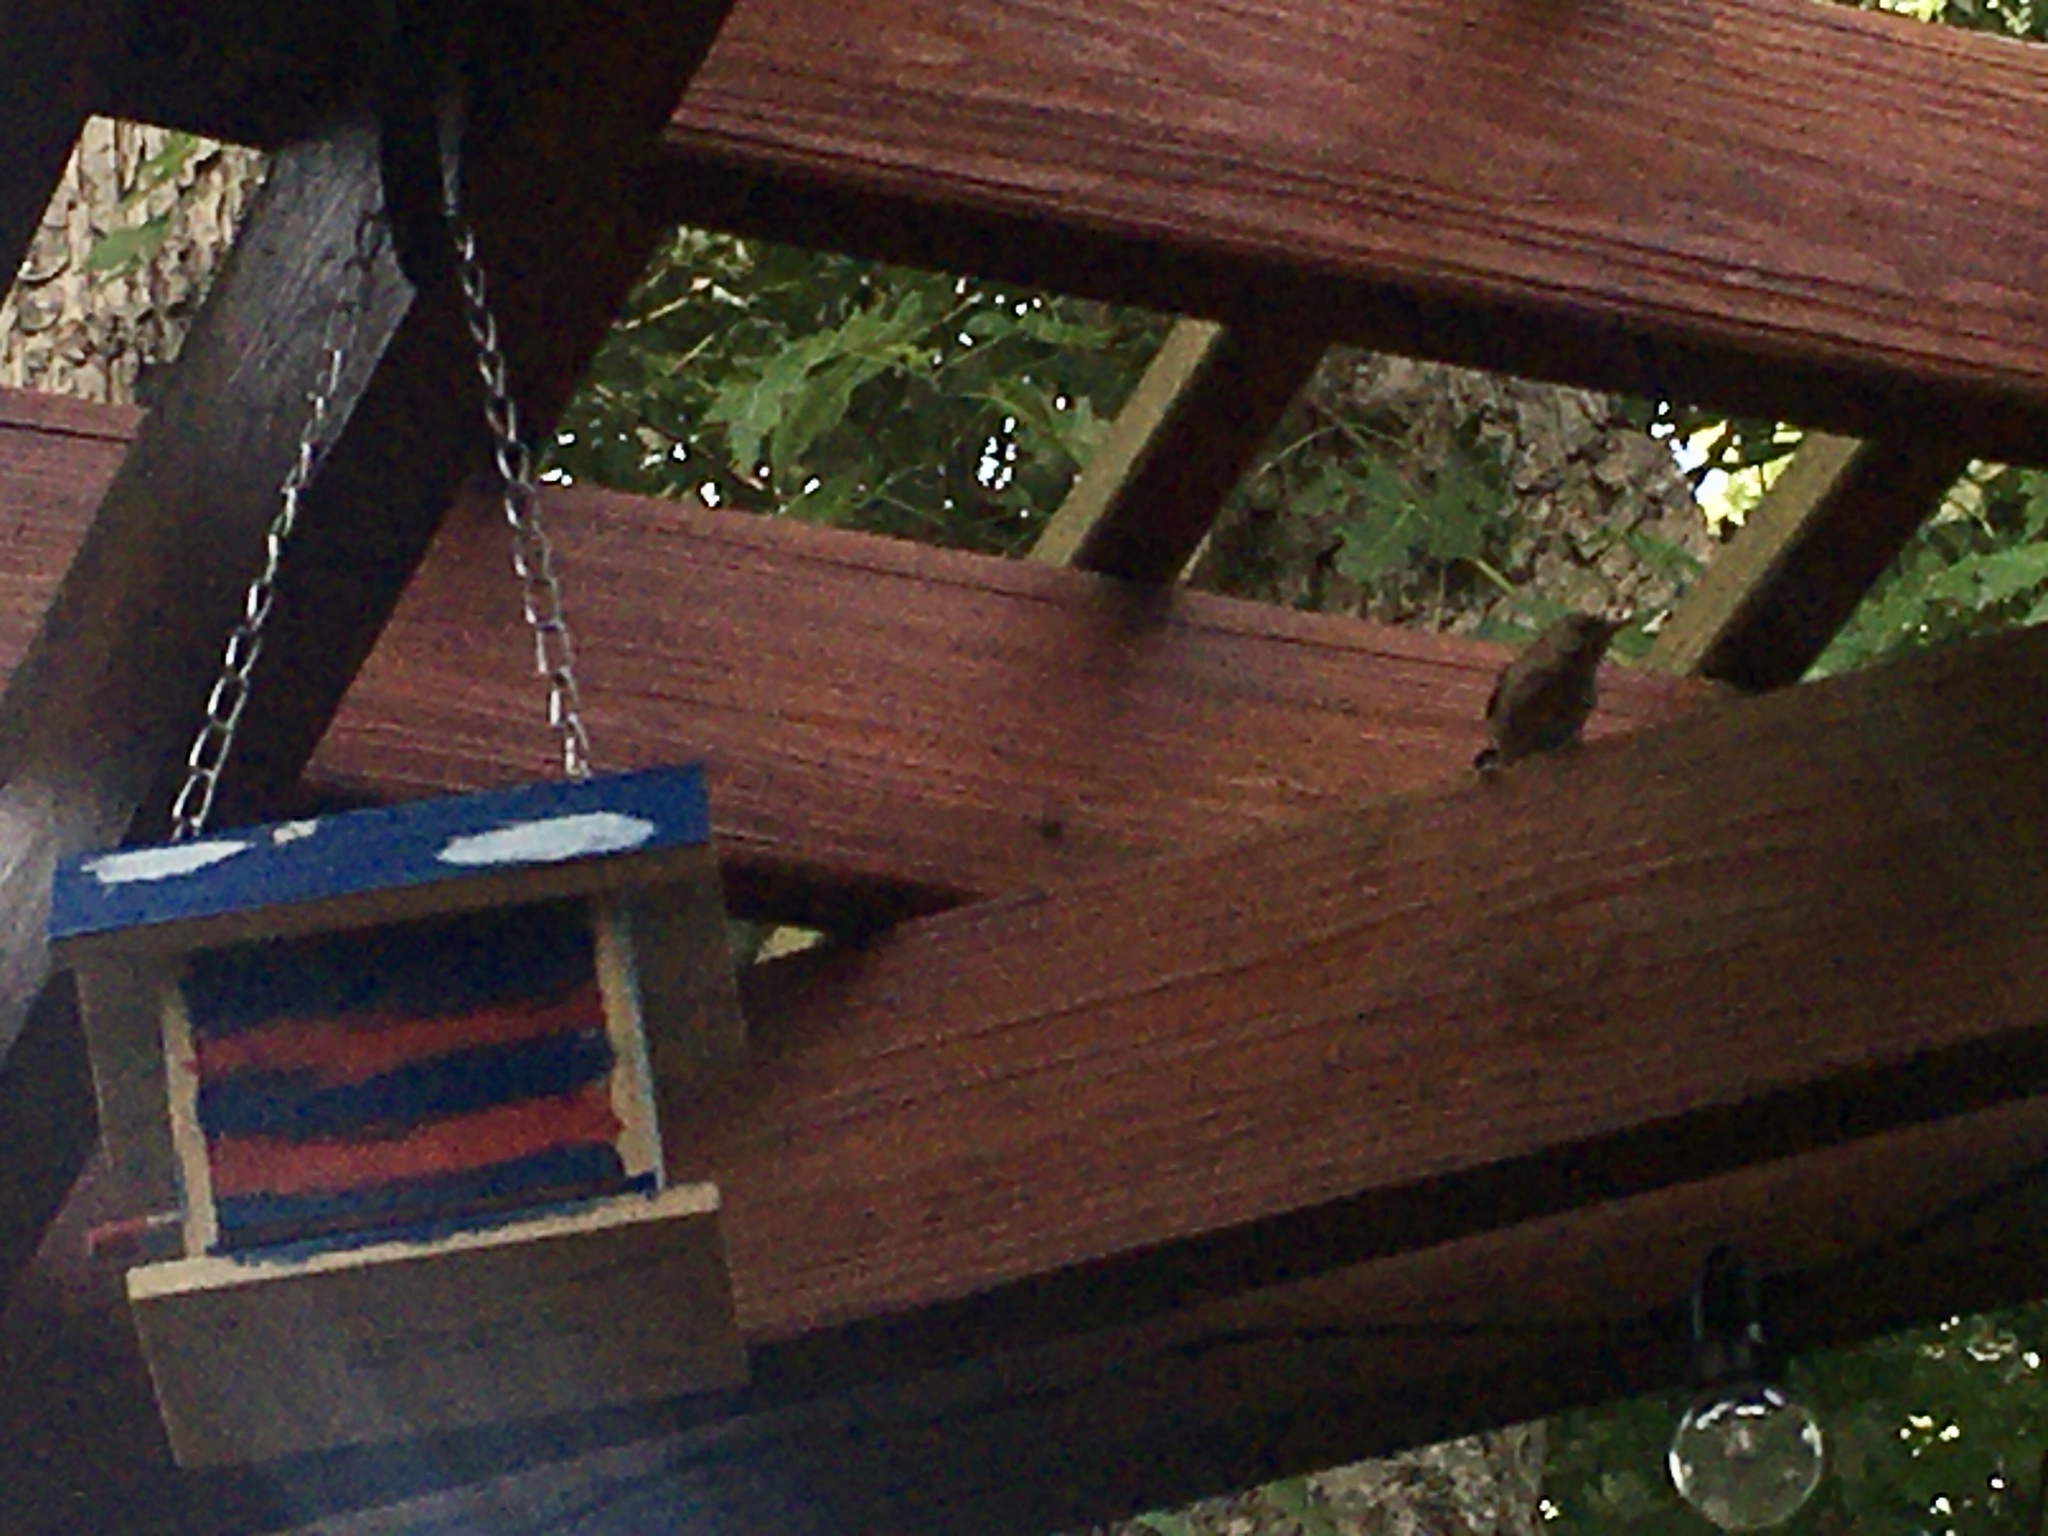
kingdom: Animalia
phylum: Chordata
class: Aves
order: Passeriformes
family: Troglodytidae
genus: Troglodytes
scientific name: Troglodytes aedon
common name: House wren
